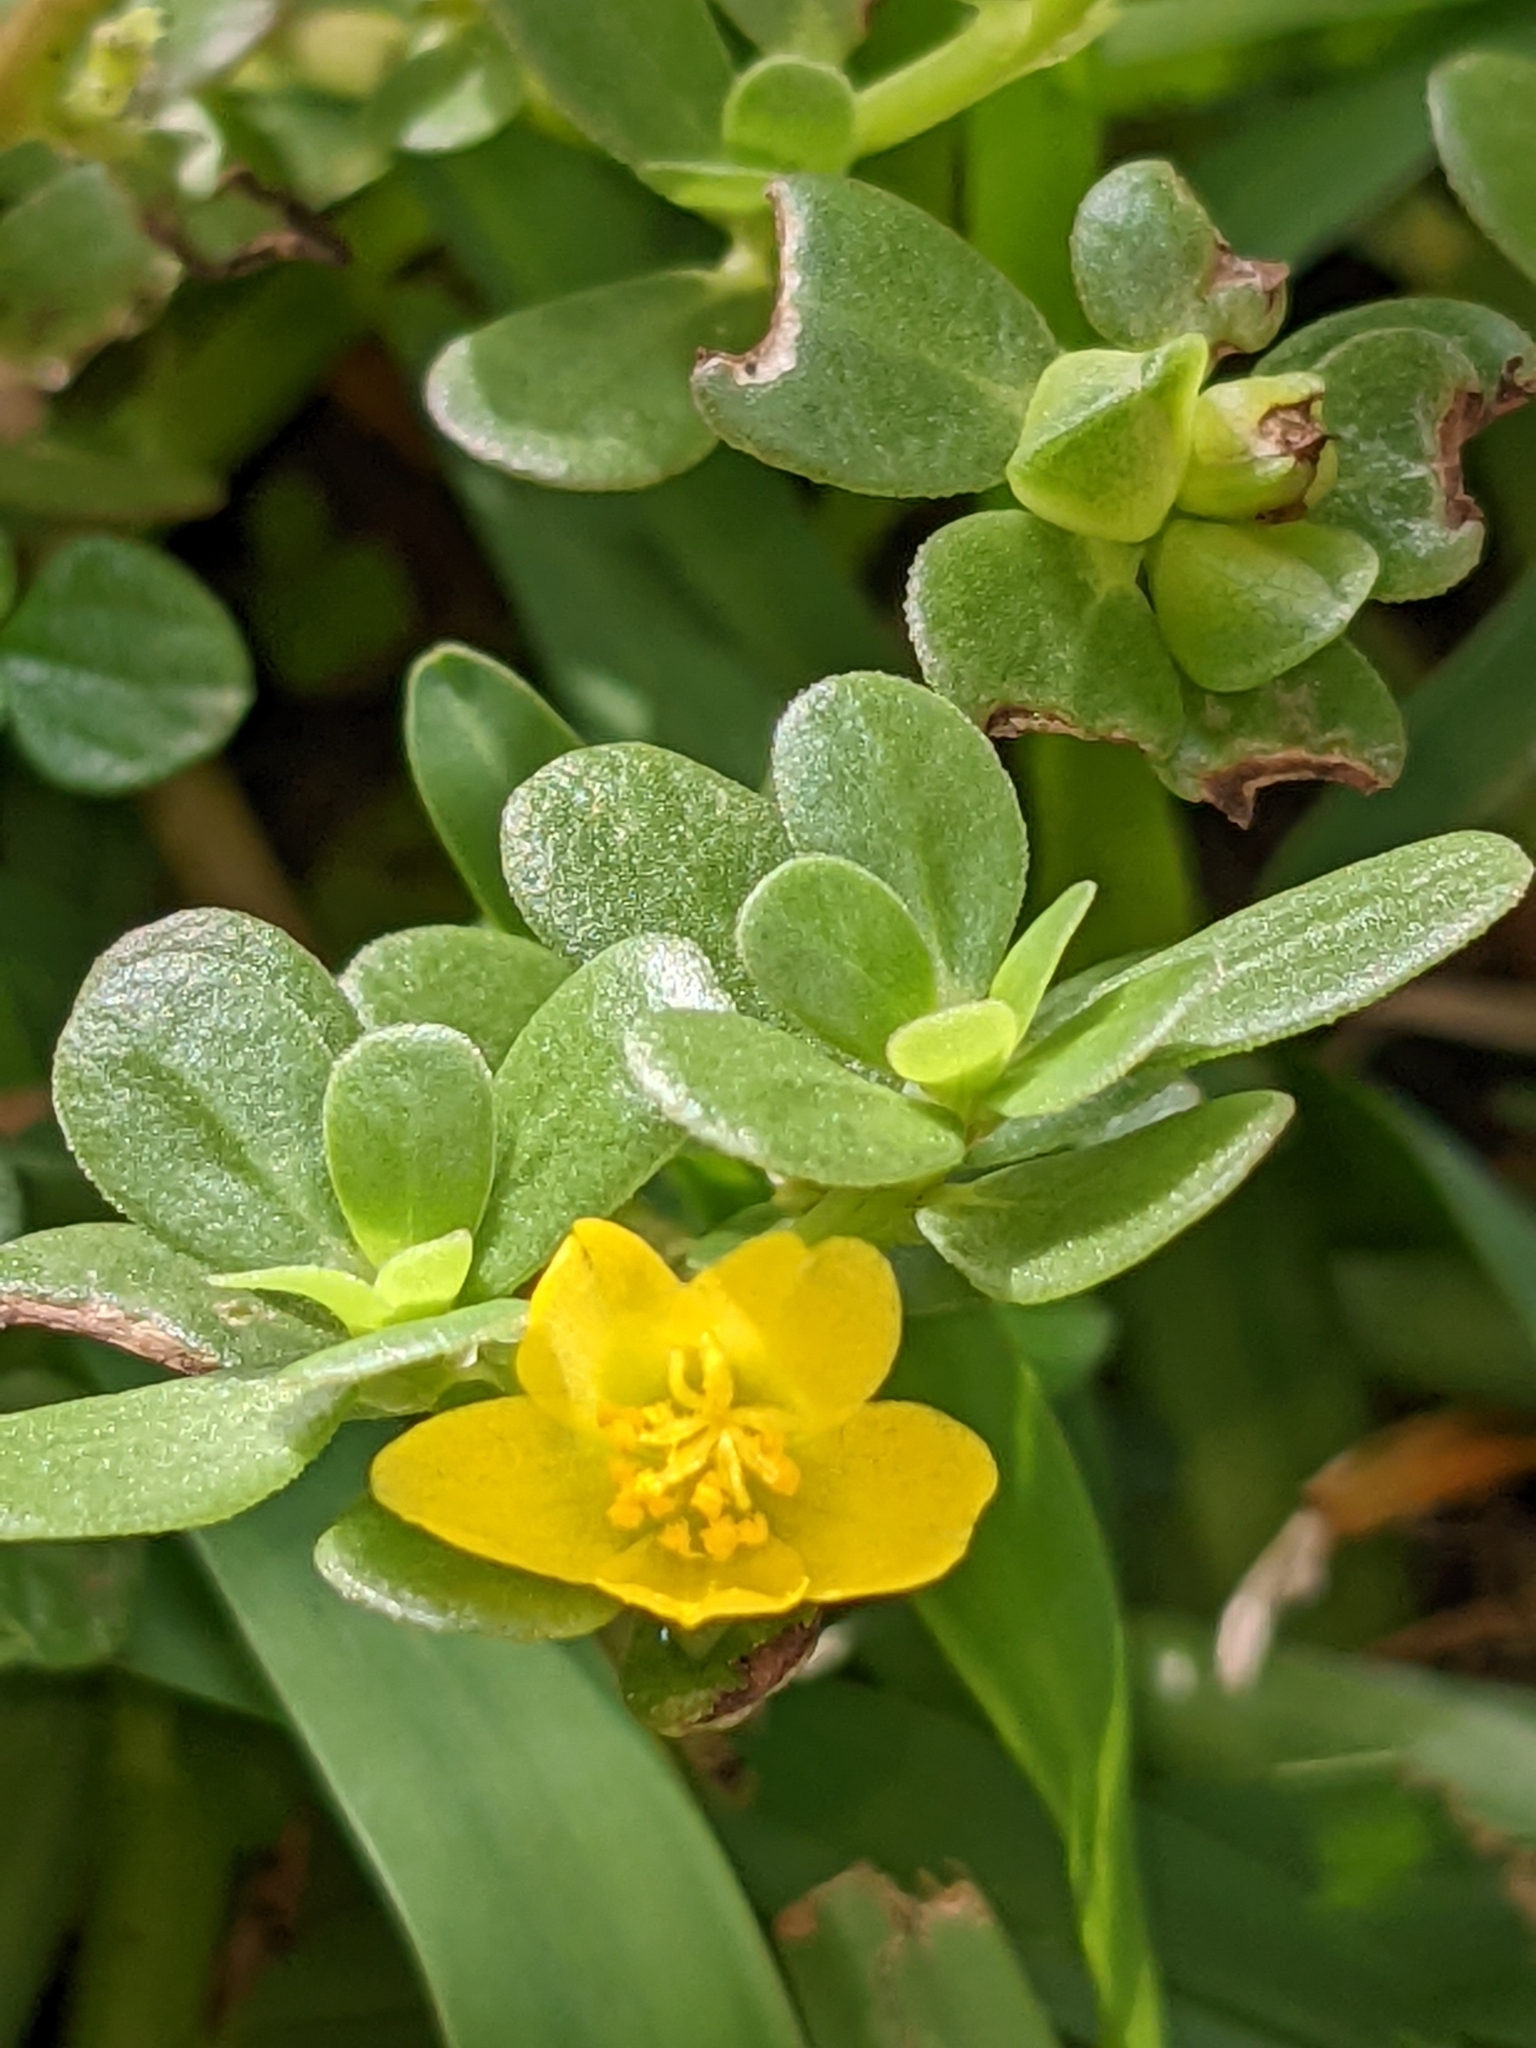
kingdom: Plantae
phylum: Tracheophyta
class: Magnoliopsida
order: Caryophyllales
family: Portulacaceae
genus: Portulaca
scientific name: Portulaca oleracea
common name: Common purslane
